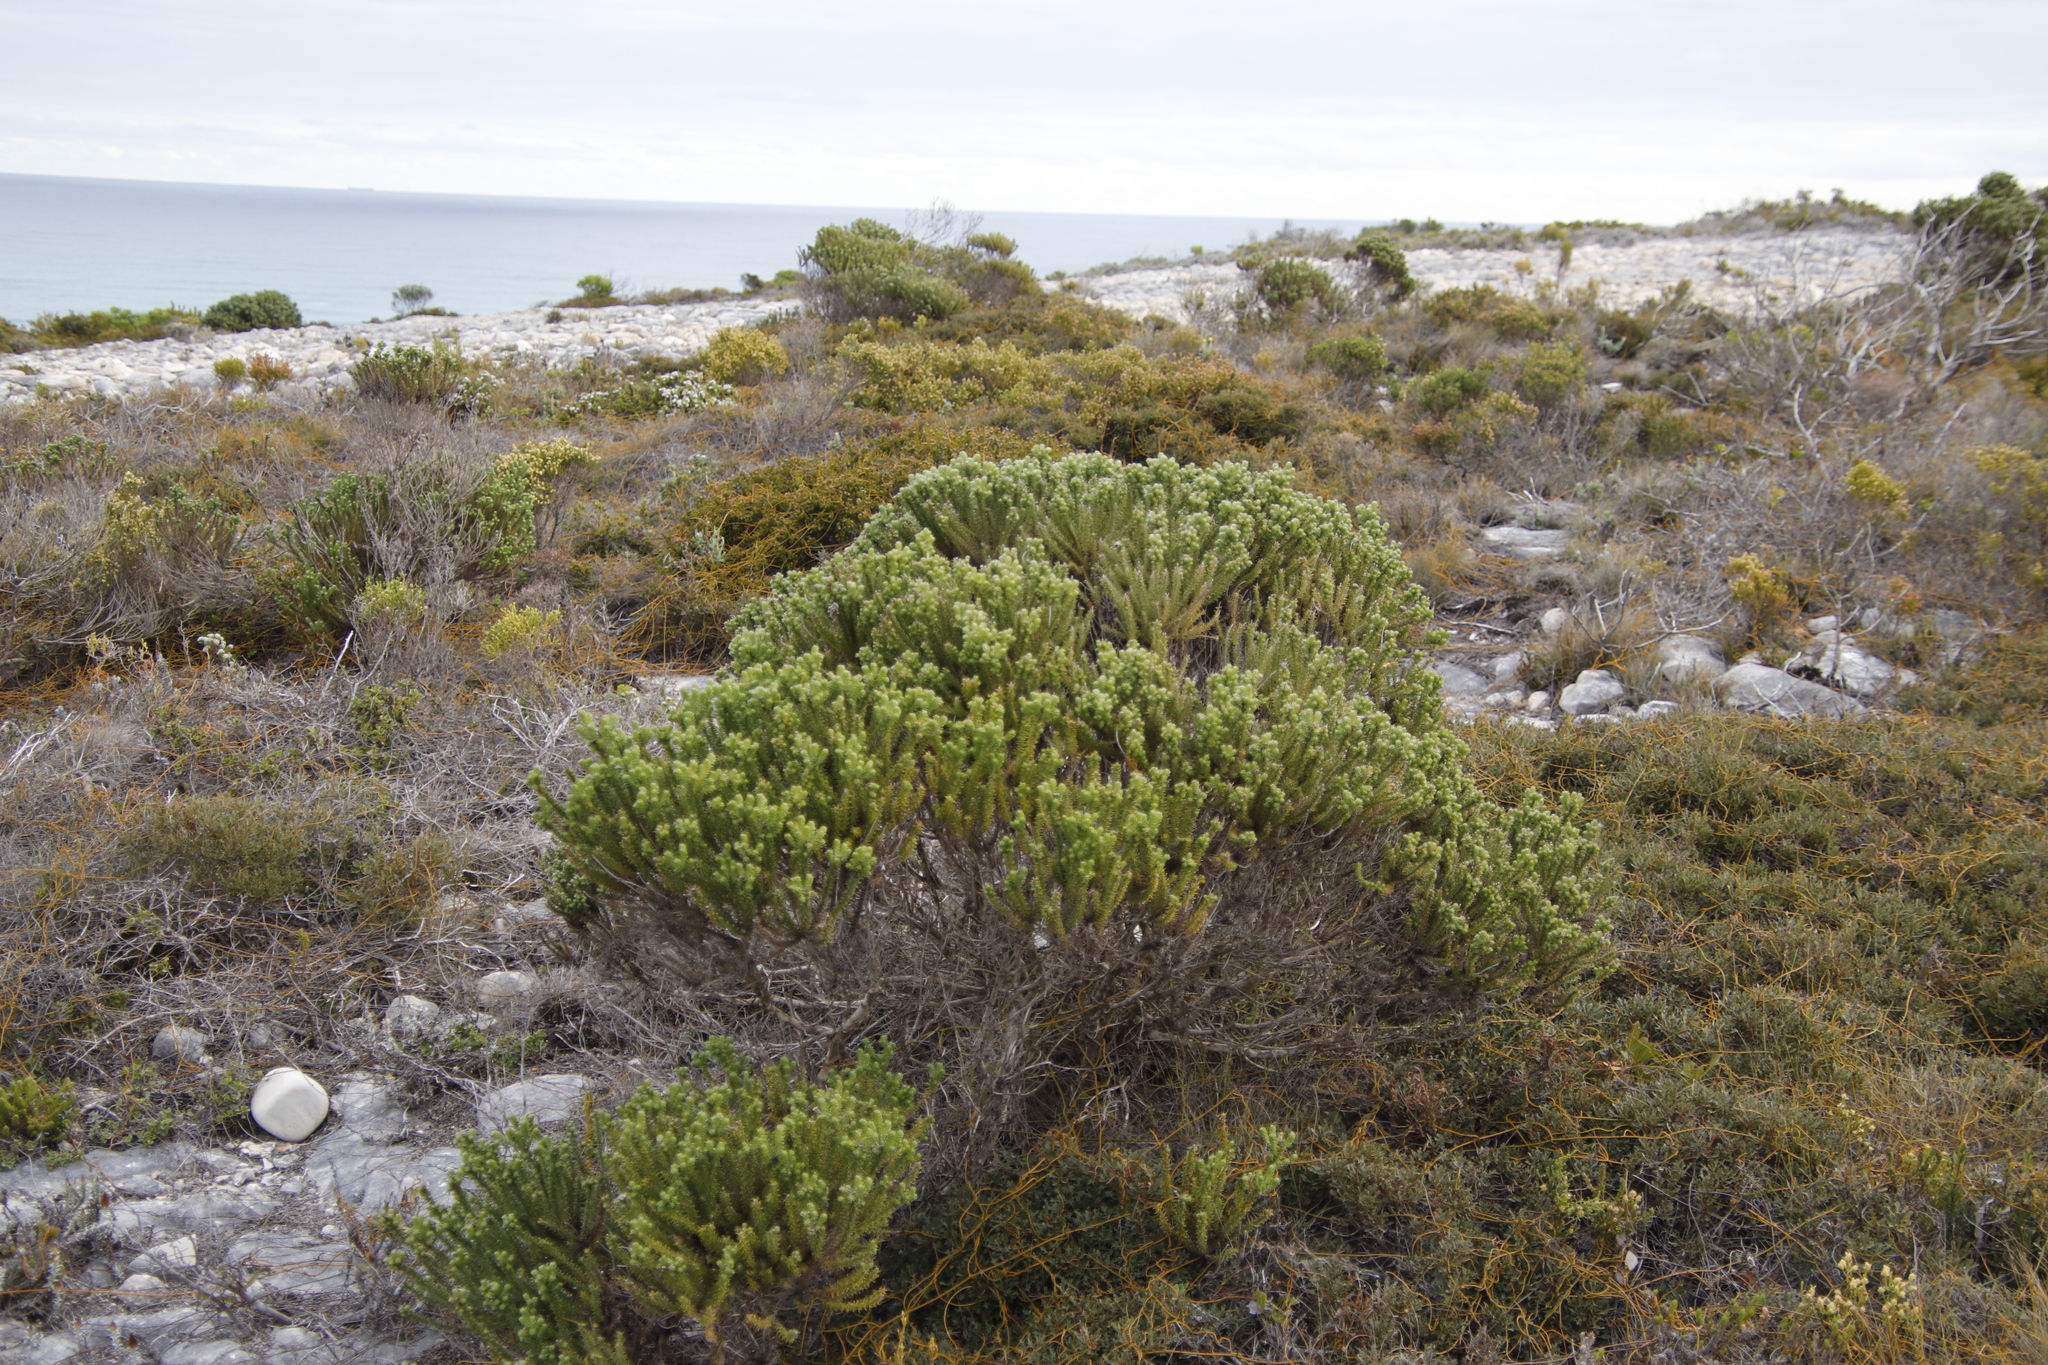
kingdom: Plantae
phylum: Tracheophyta
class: Magnoliopsida
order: Asterales
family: Asteraceae
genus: Metalasia
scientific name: Metalasia muricata
